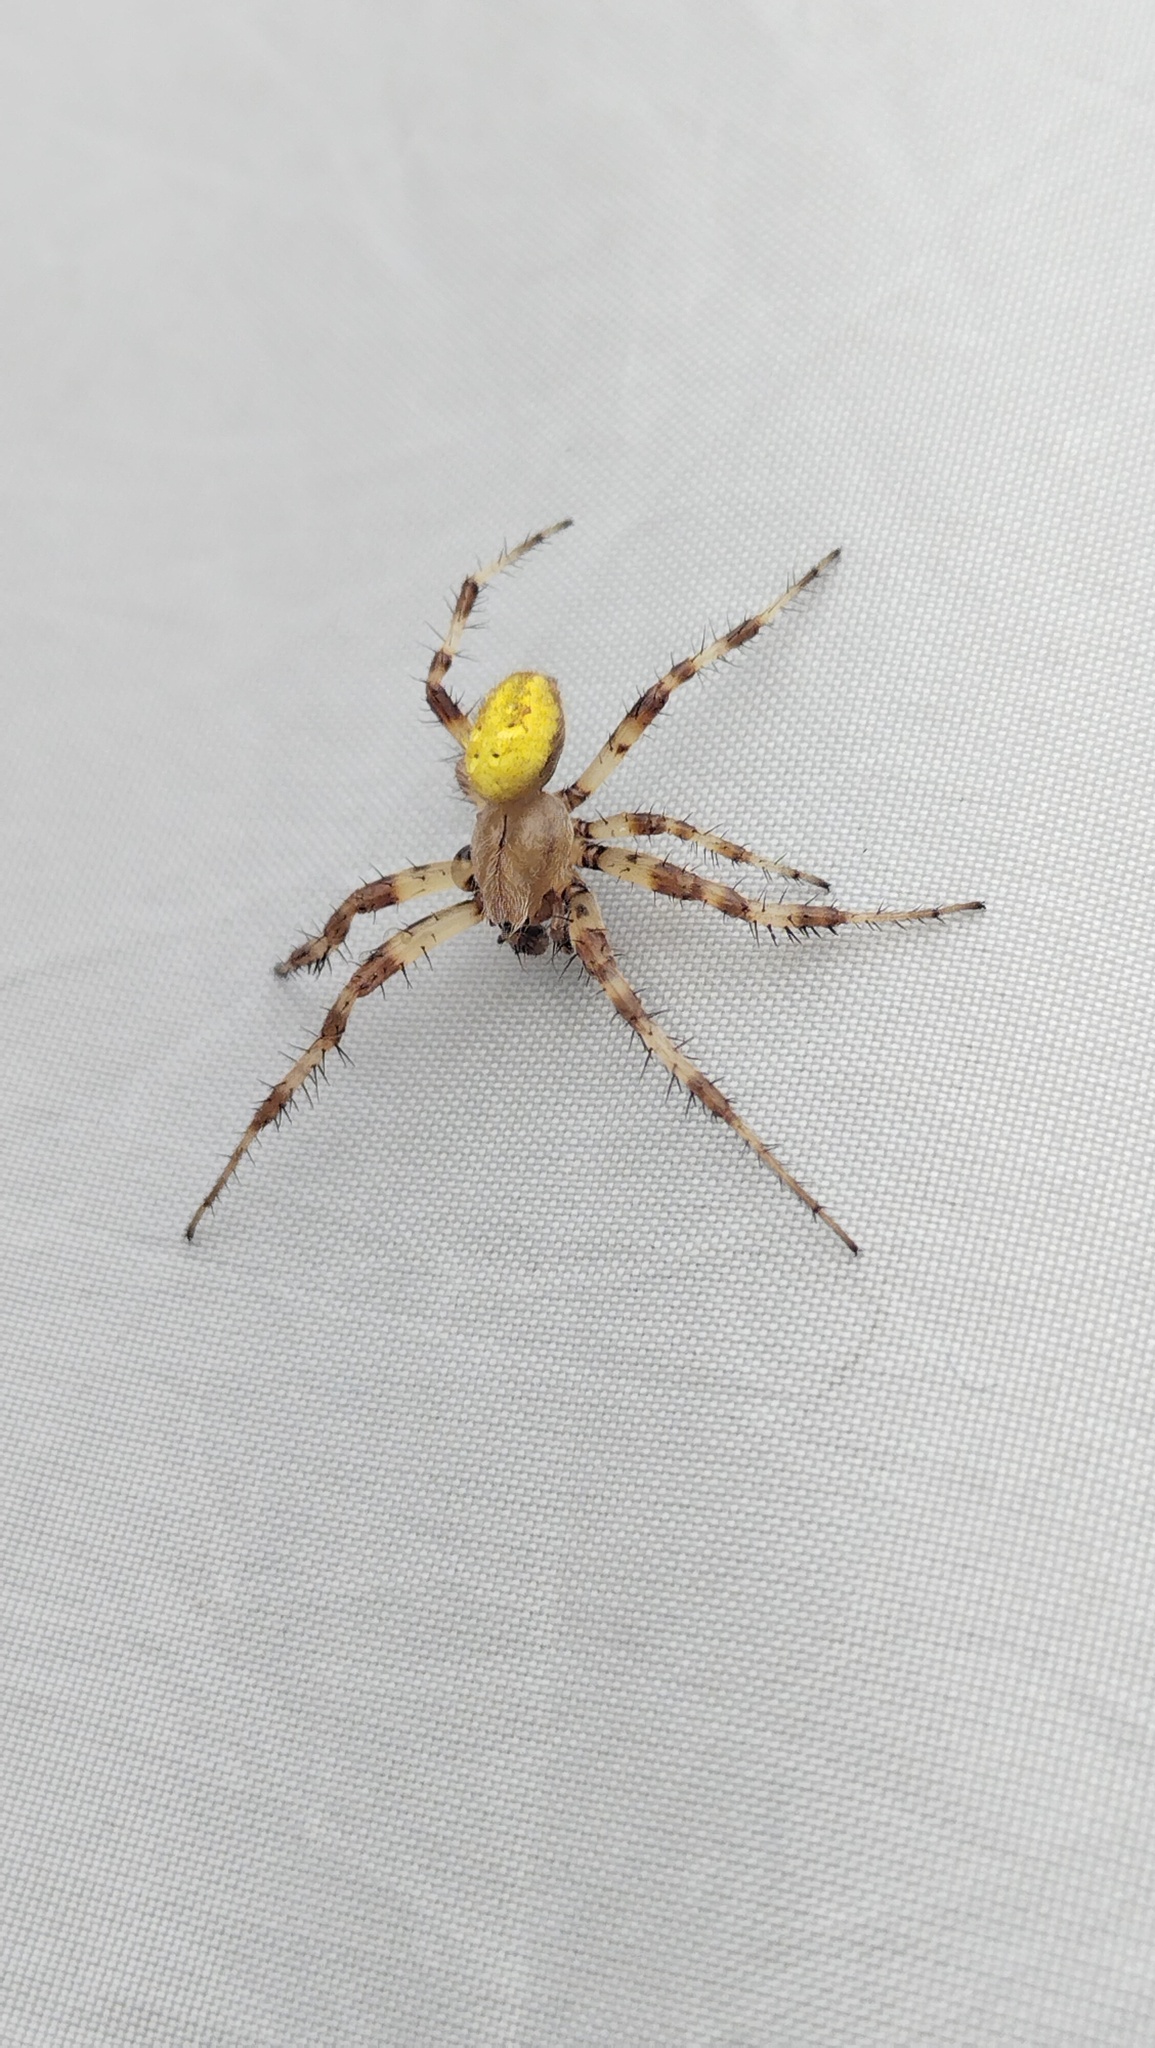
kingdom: Animalia
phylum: Arthropoda
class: Arachnida
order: Araneae
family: Araneidae
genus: Araneus
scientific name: Araneus quadratus
